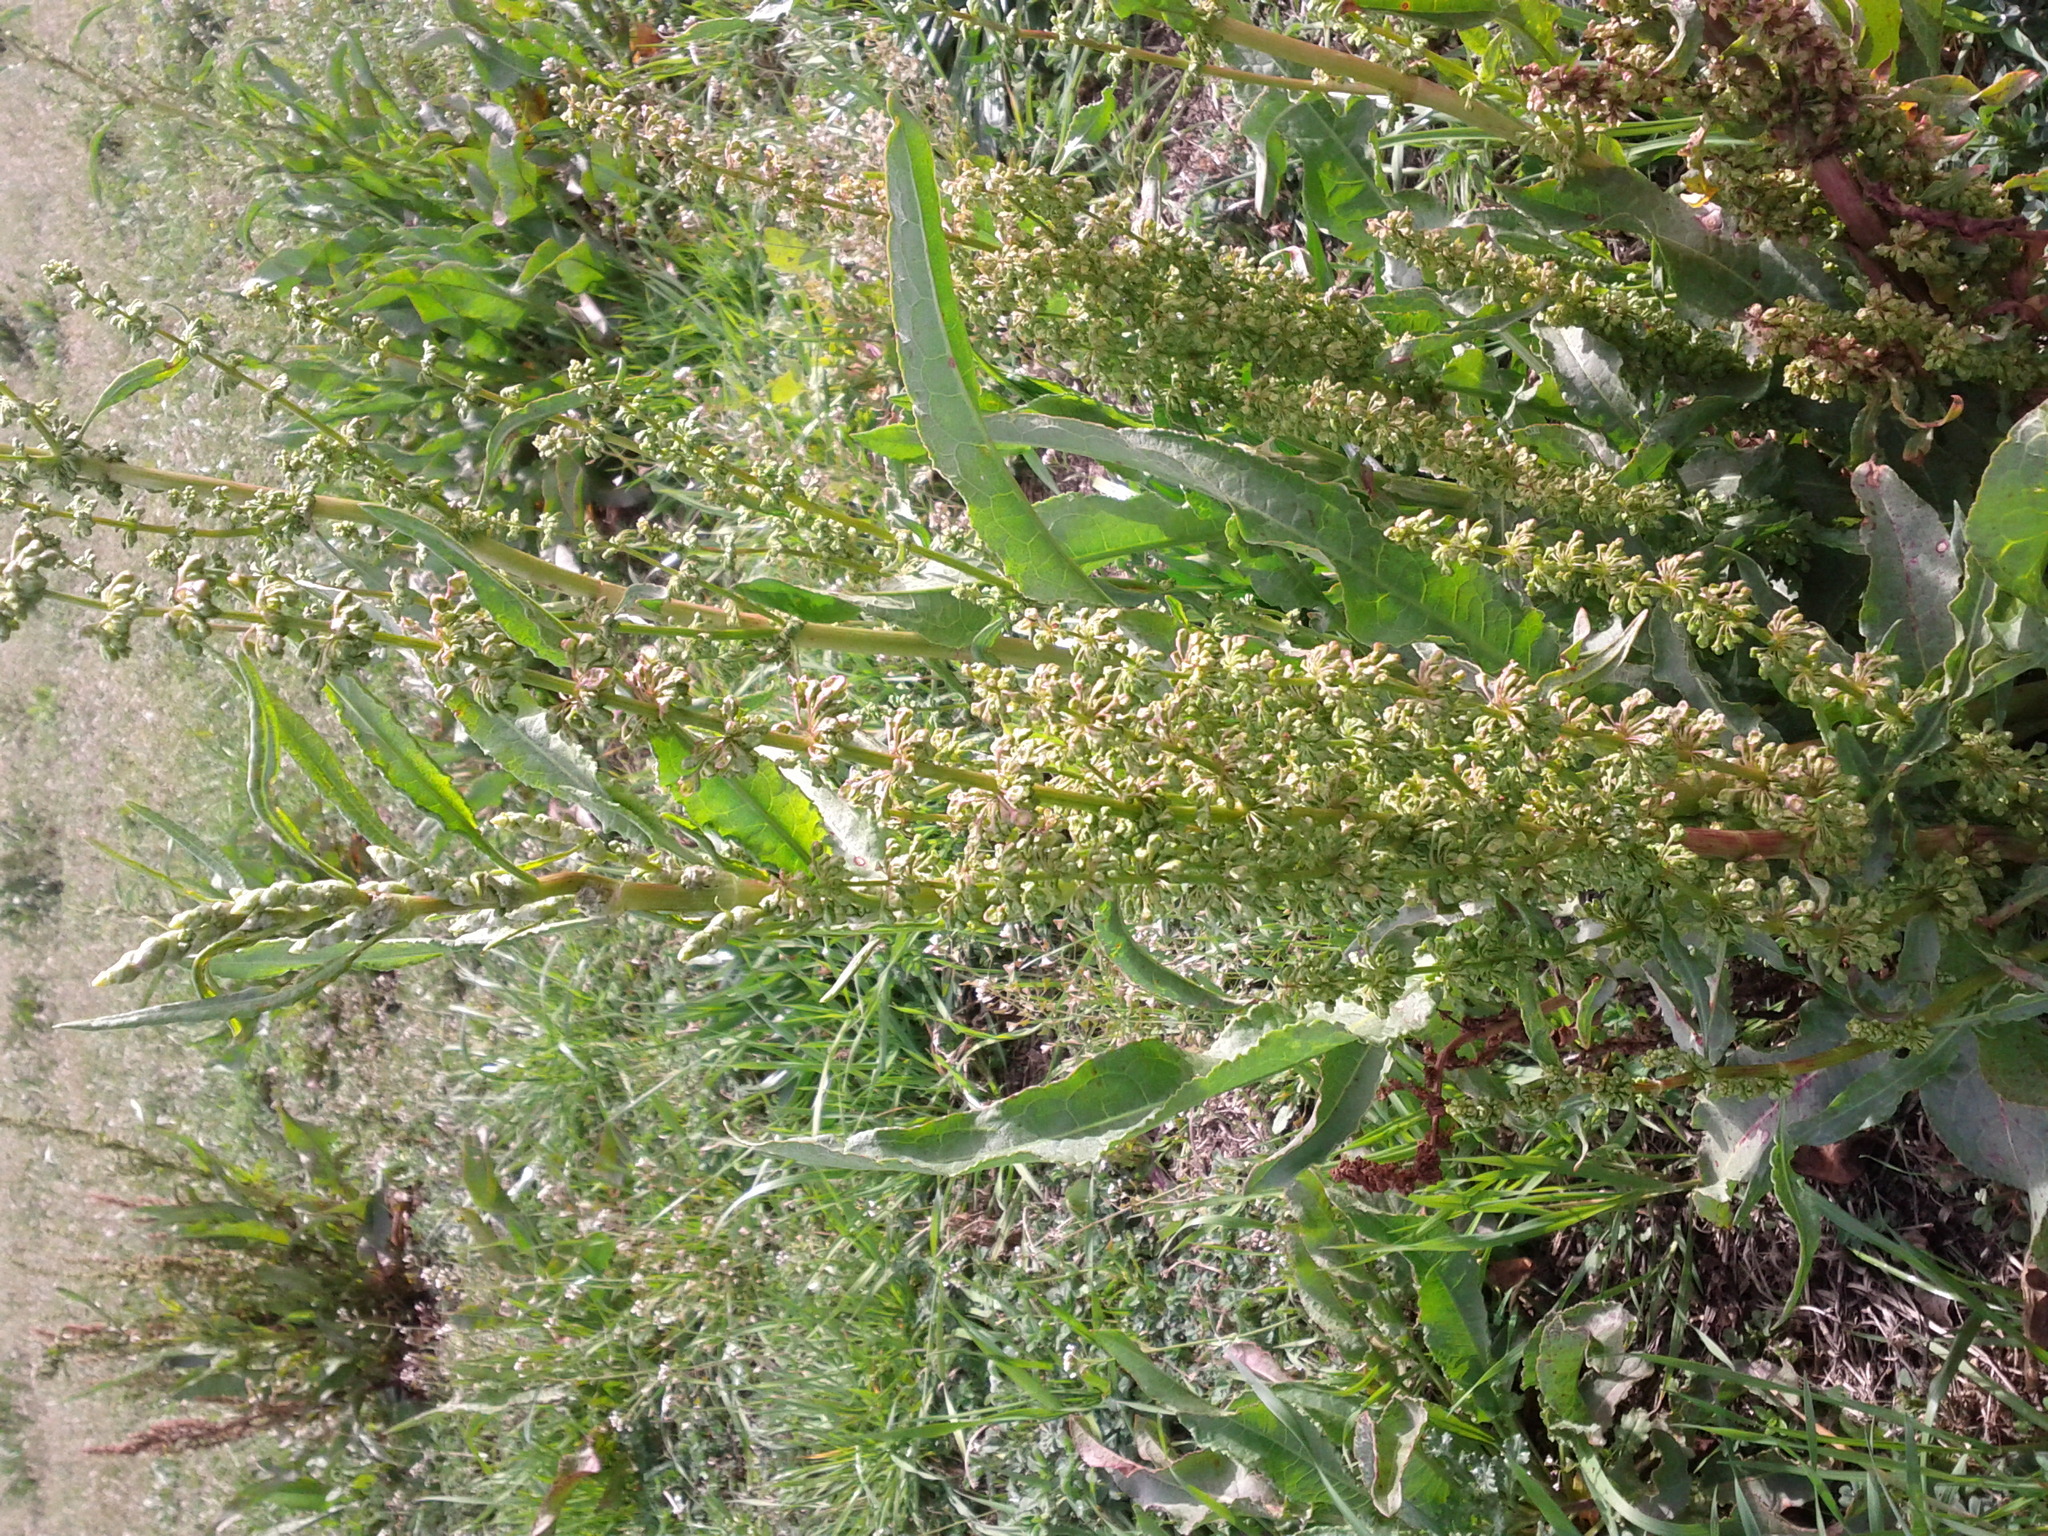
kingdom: Plantae
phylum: Tracheophyta
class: Magnoliopsida
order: Caryophyllales
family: Polygonaceae
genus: Rumex
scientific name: Rumex crispus
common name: Curled dock
